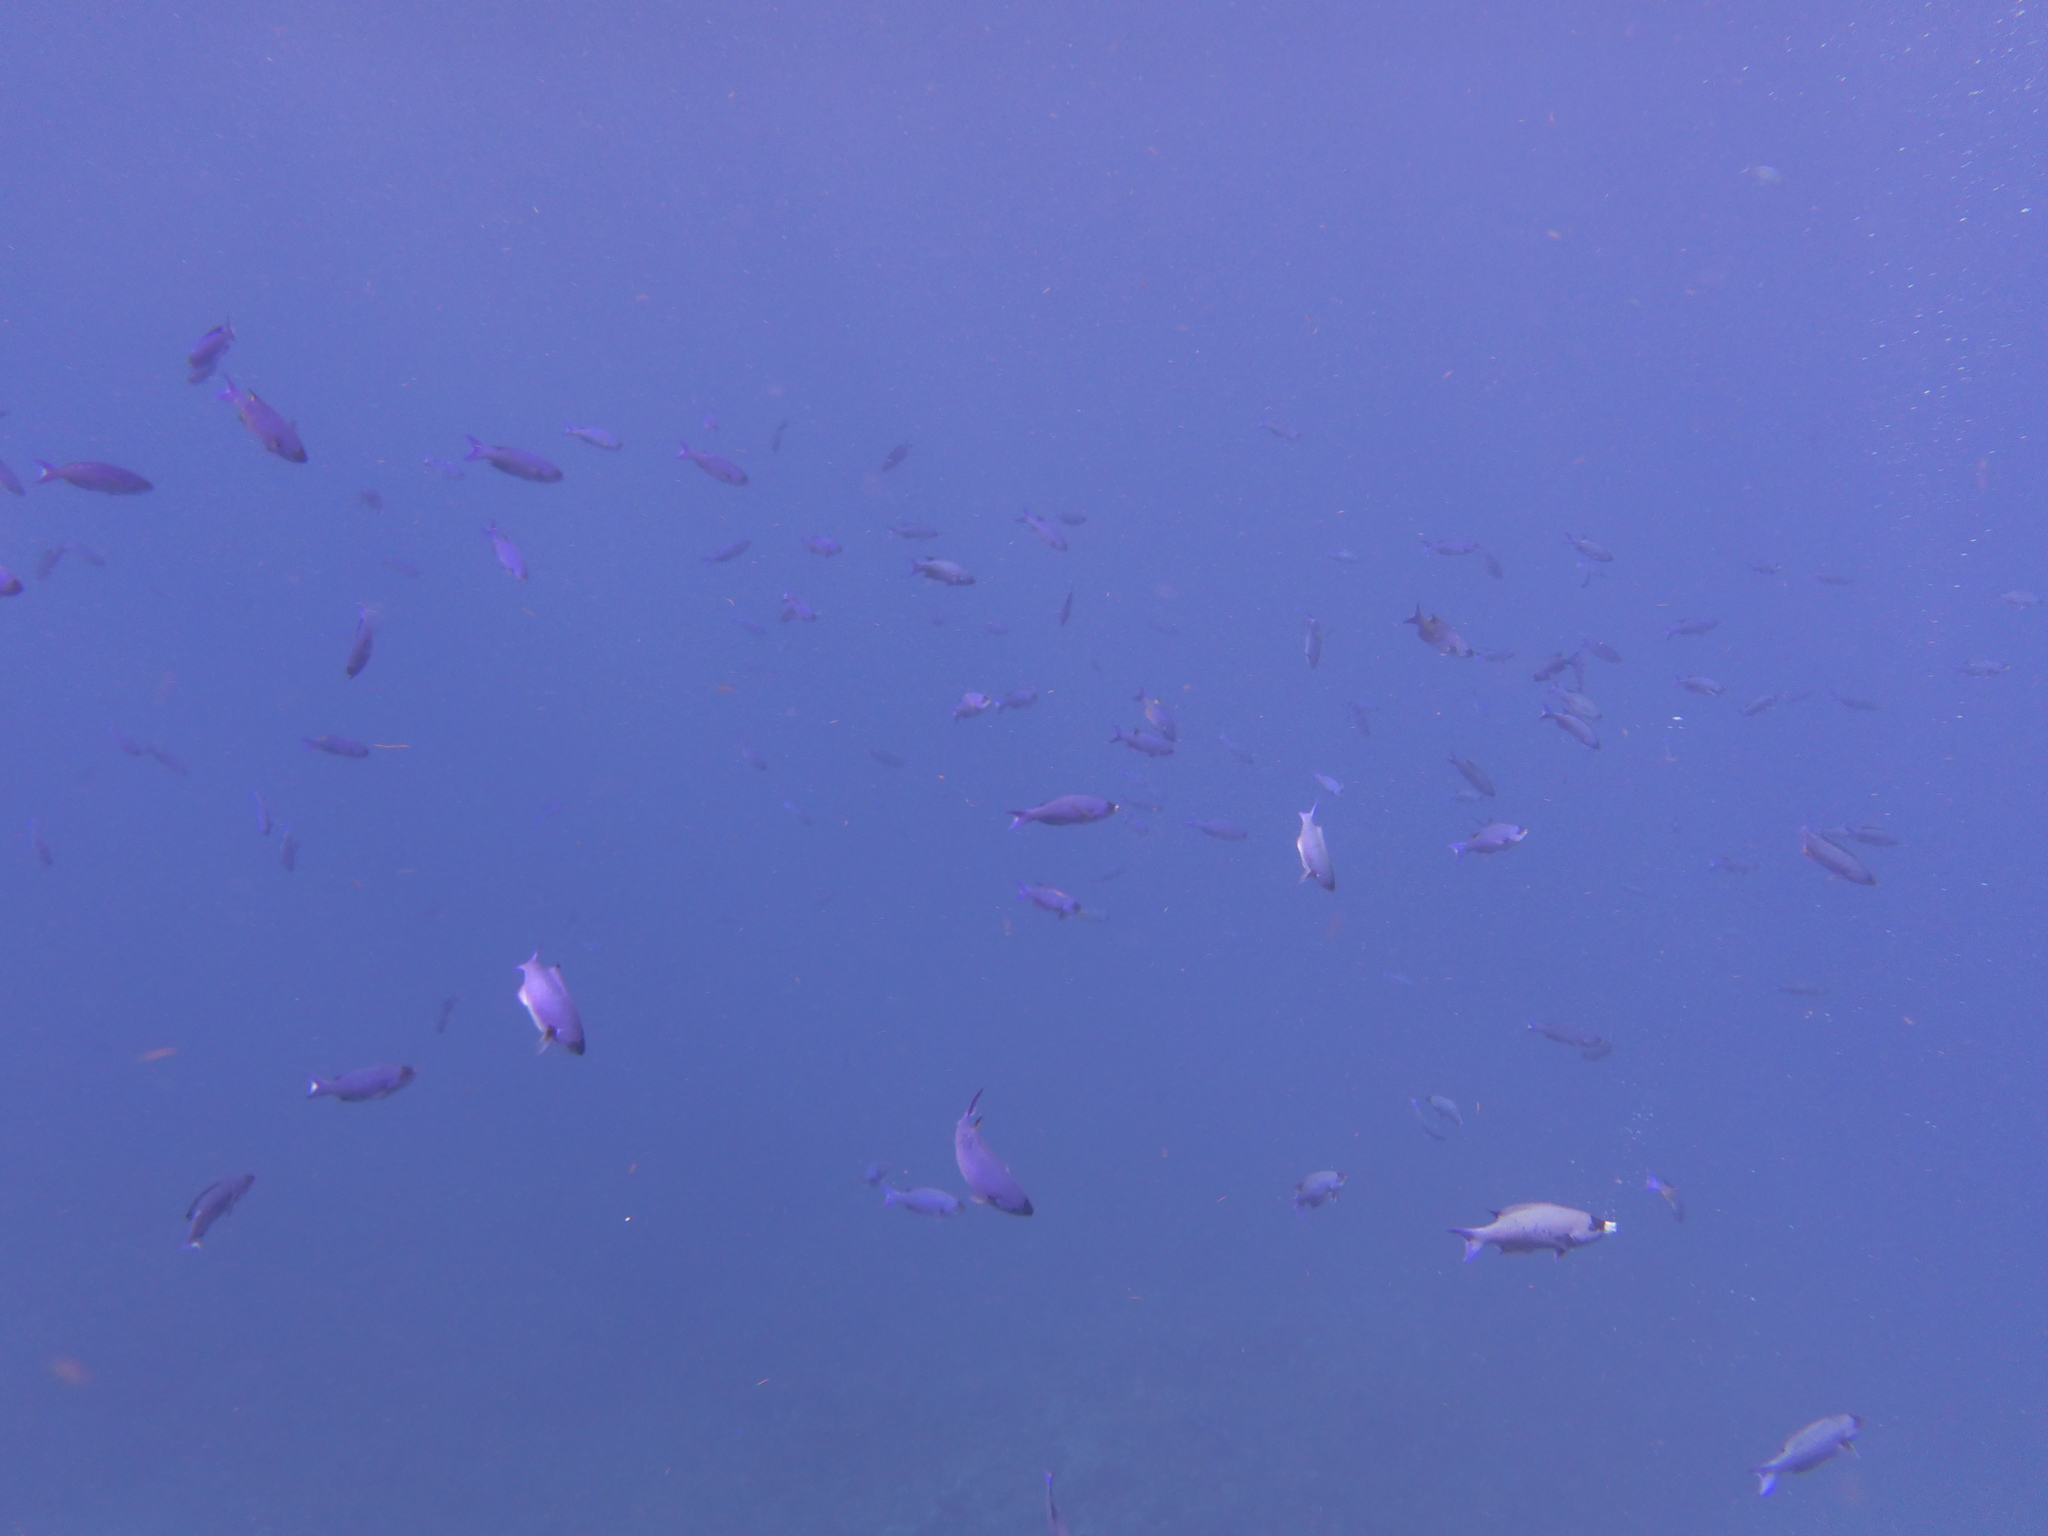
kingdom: Animalia
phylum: Chordata
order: Perciformes
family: Labridae
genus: Bodianus
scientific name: Bodianus
